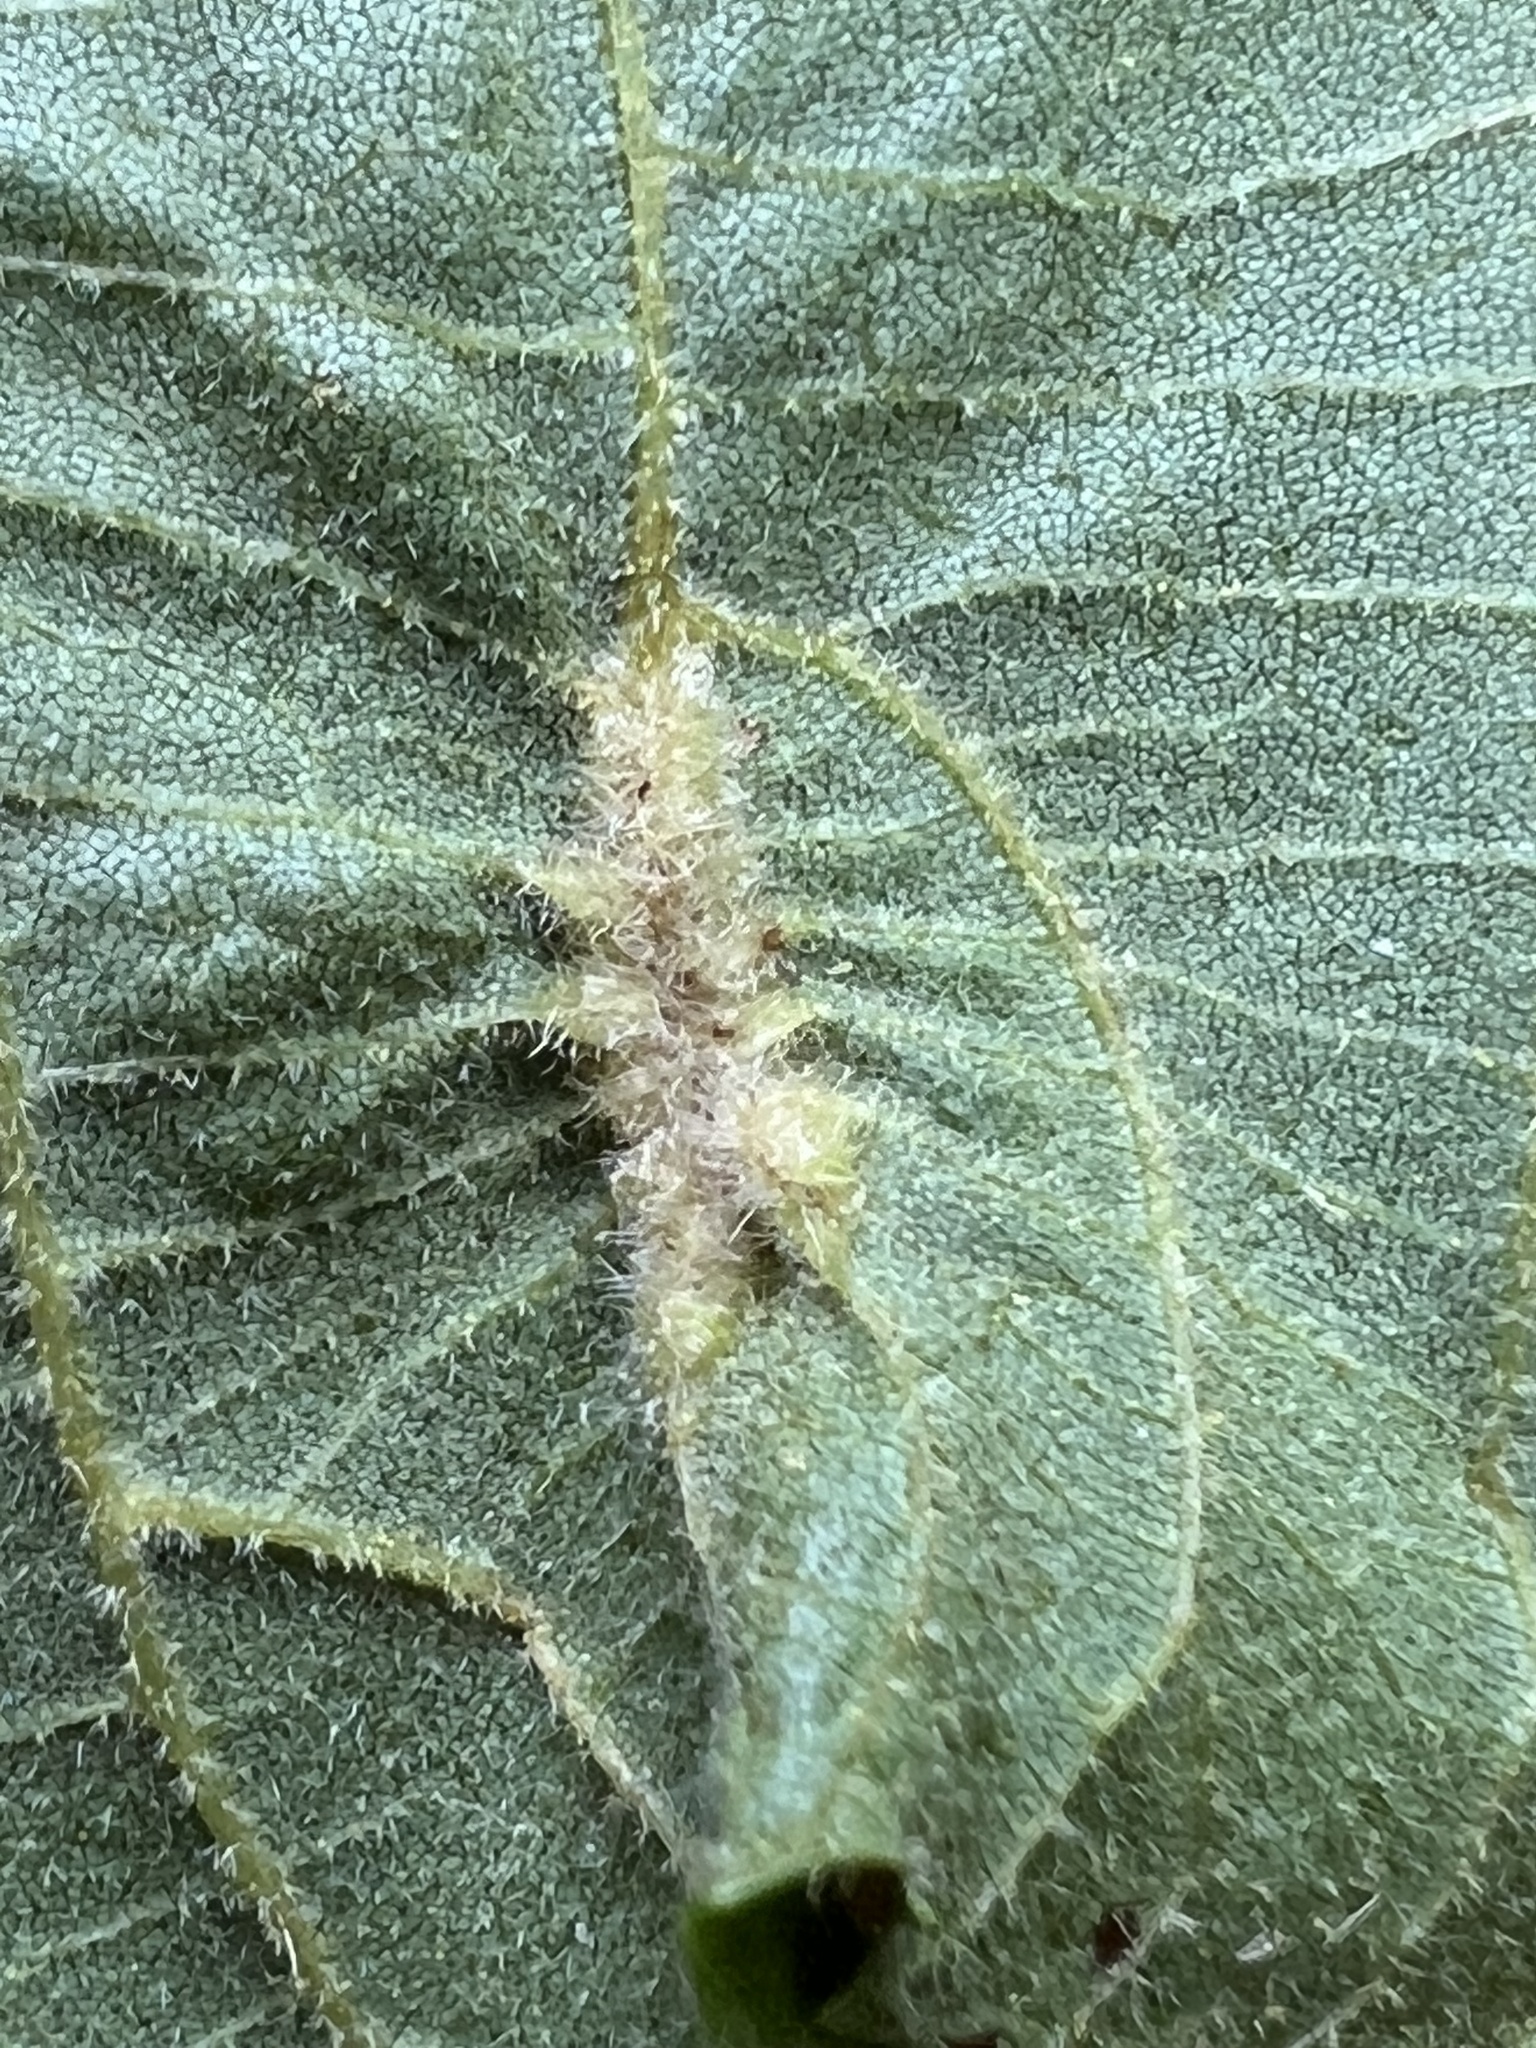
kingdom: Animalia
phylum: Arthropoda
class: Insecta
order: Hemiptera
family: Phylloxeridae
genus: Phylloxera
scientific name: Phylloxera caryaevenae
